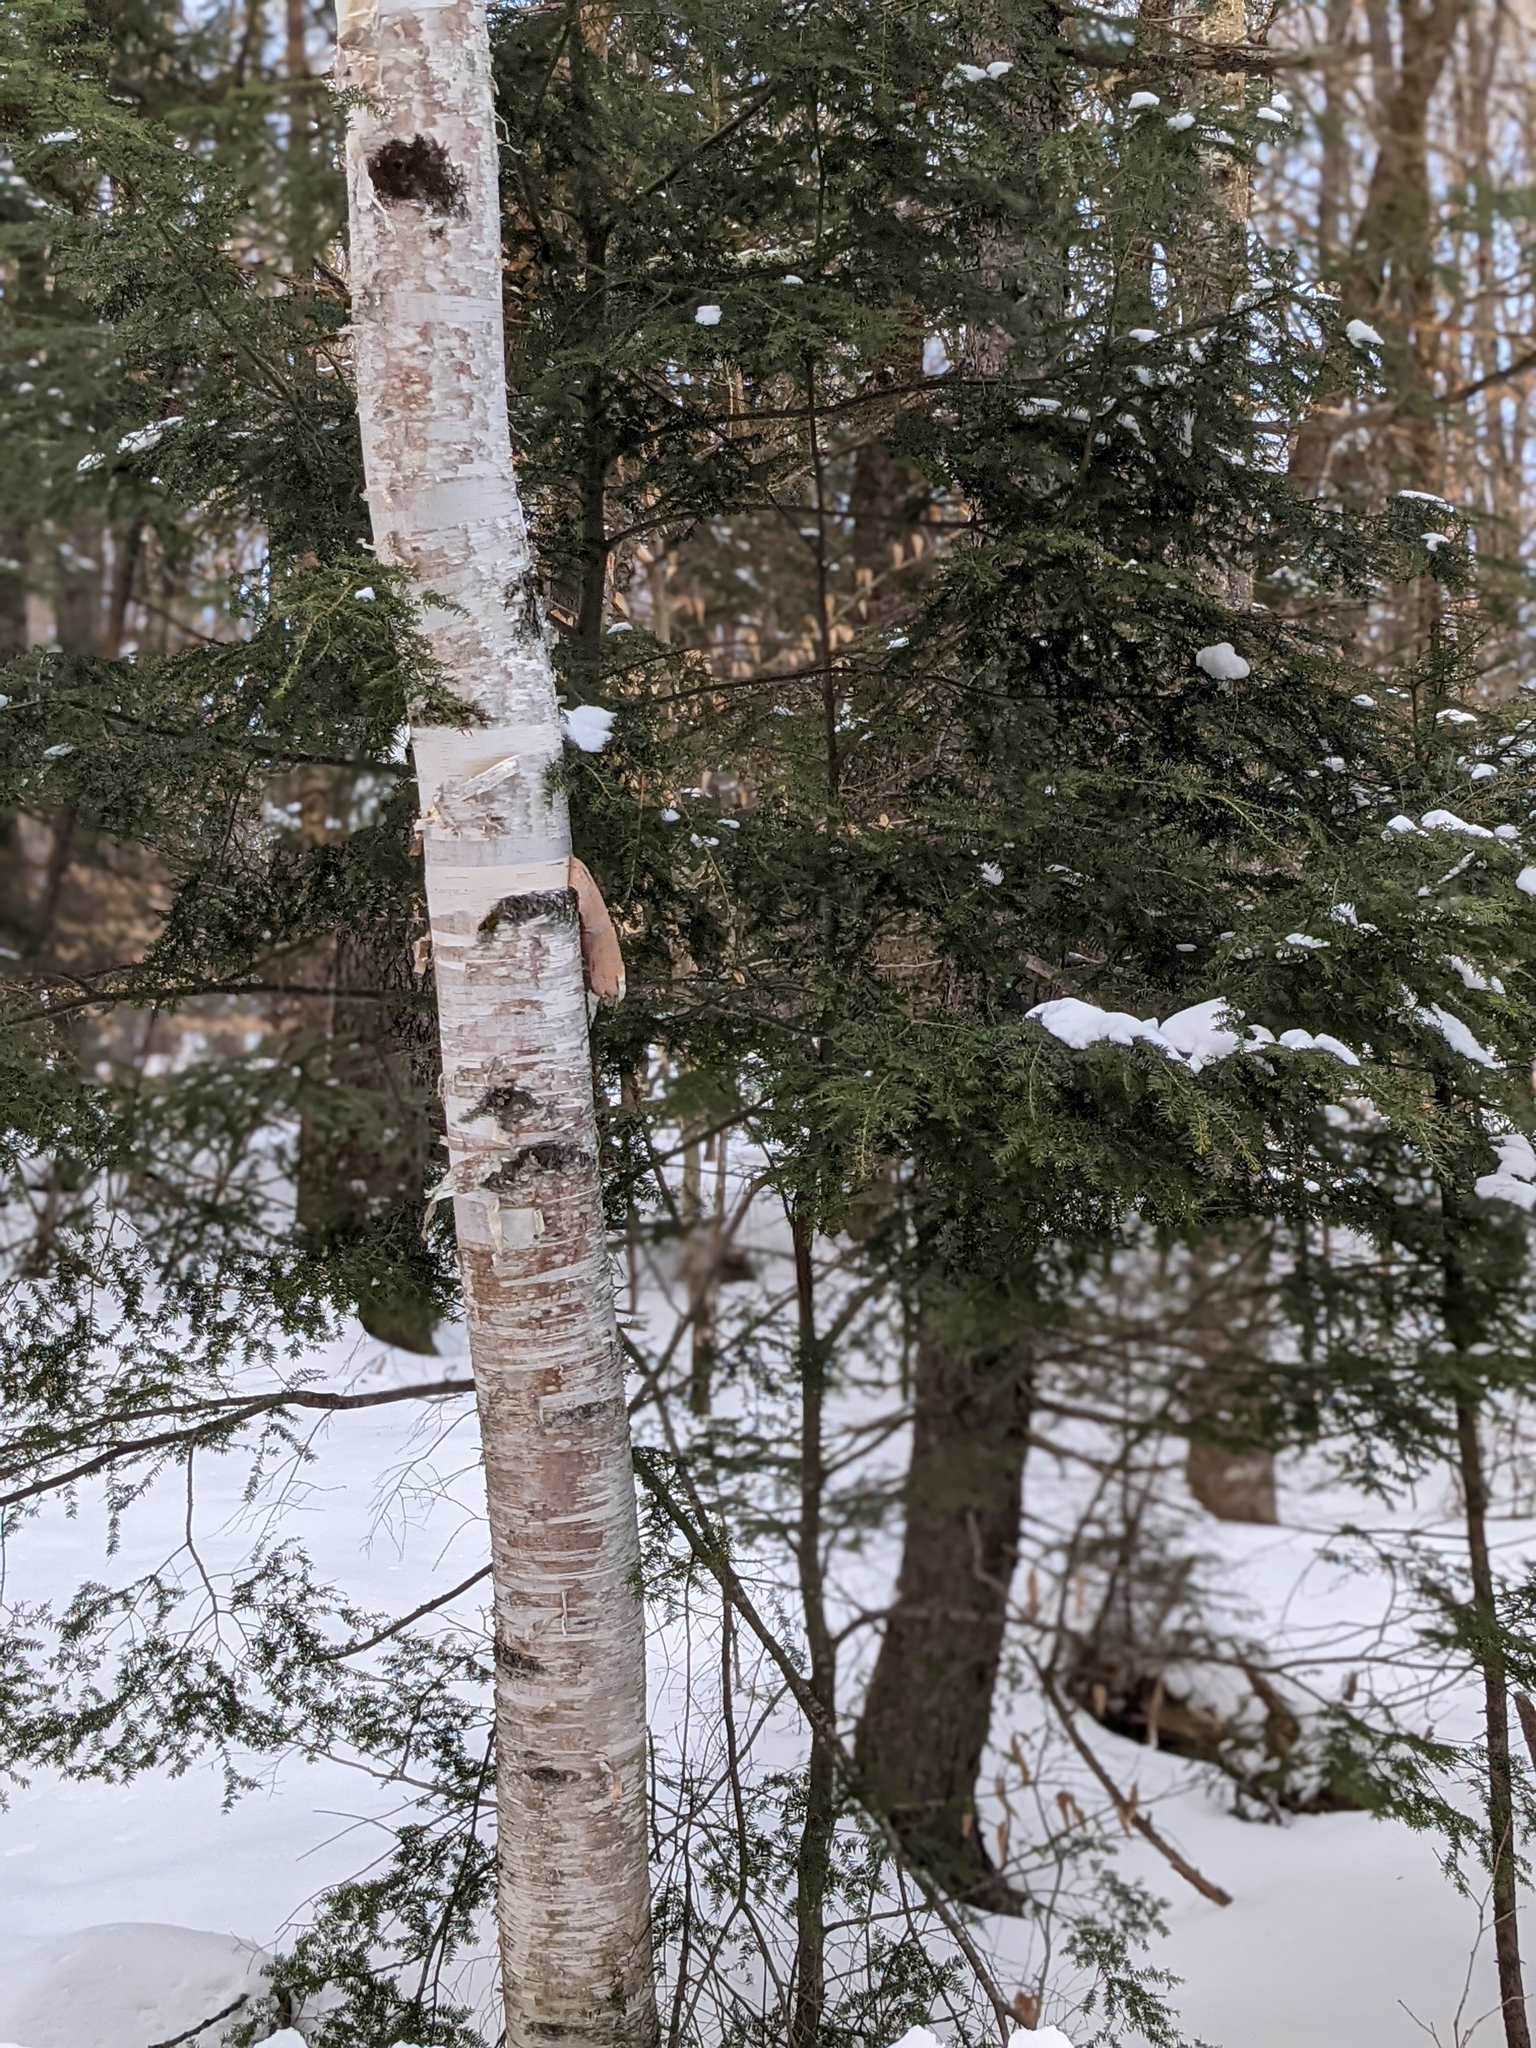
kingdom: Plantae
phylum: Tracheophyta
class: Pinopsida
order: Pinales
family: Pinaceae
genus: Tsuga
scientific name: Tsuga canadensis
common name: Eastern hemlock
